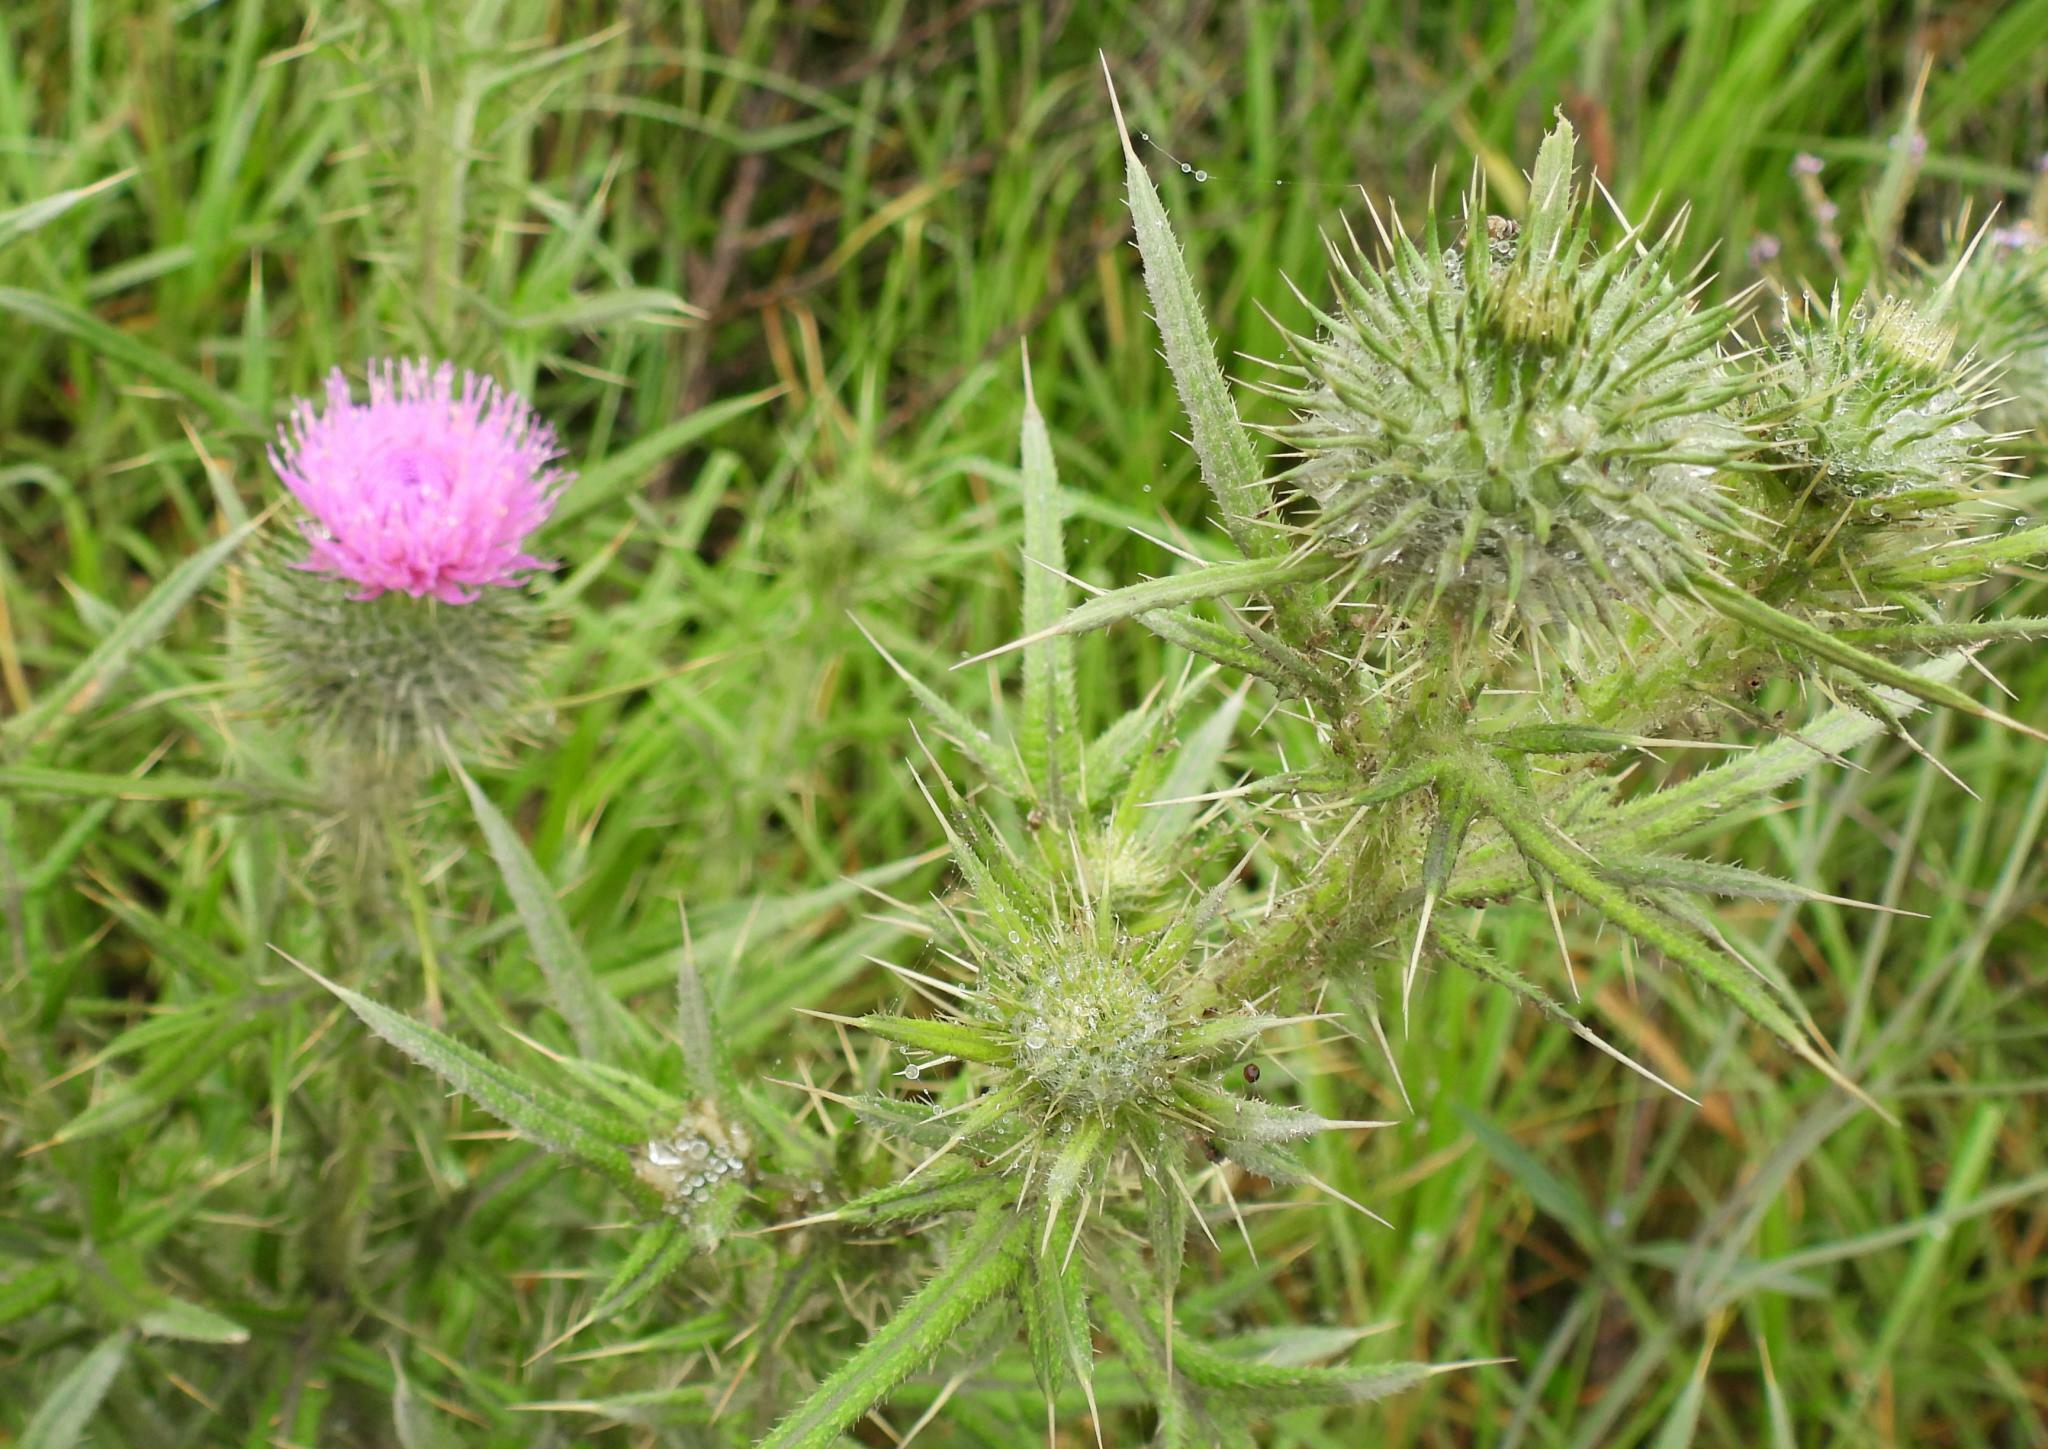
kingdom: Plantae
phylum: Tracheophyta
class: Magnoliopsida
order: Asterales
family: Asteraceae
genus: Cirsium
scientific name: Cirsium vulgare
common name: Bull thistle
